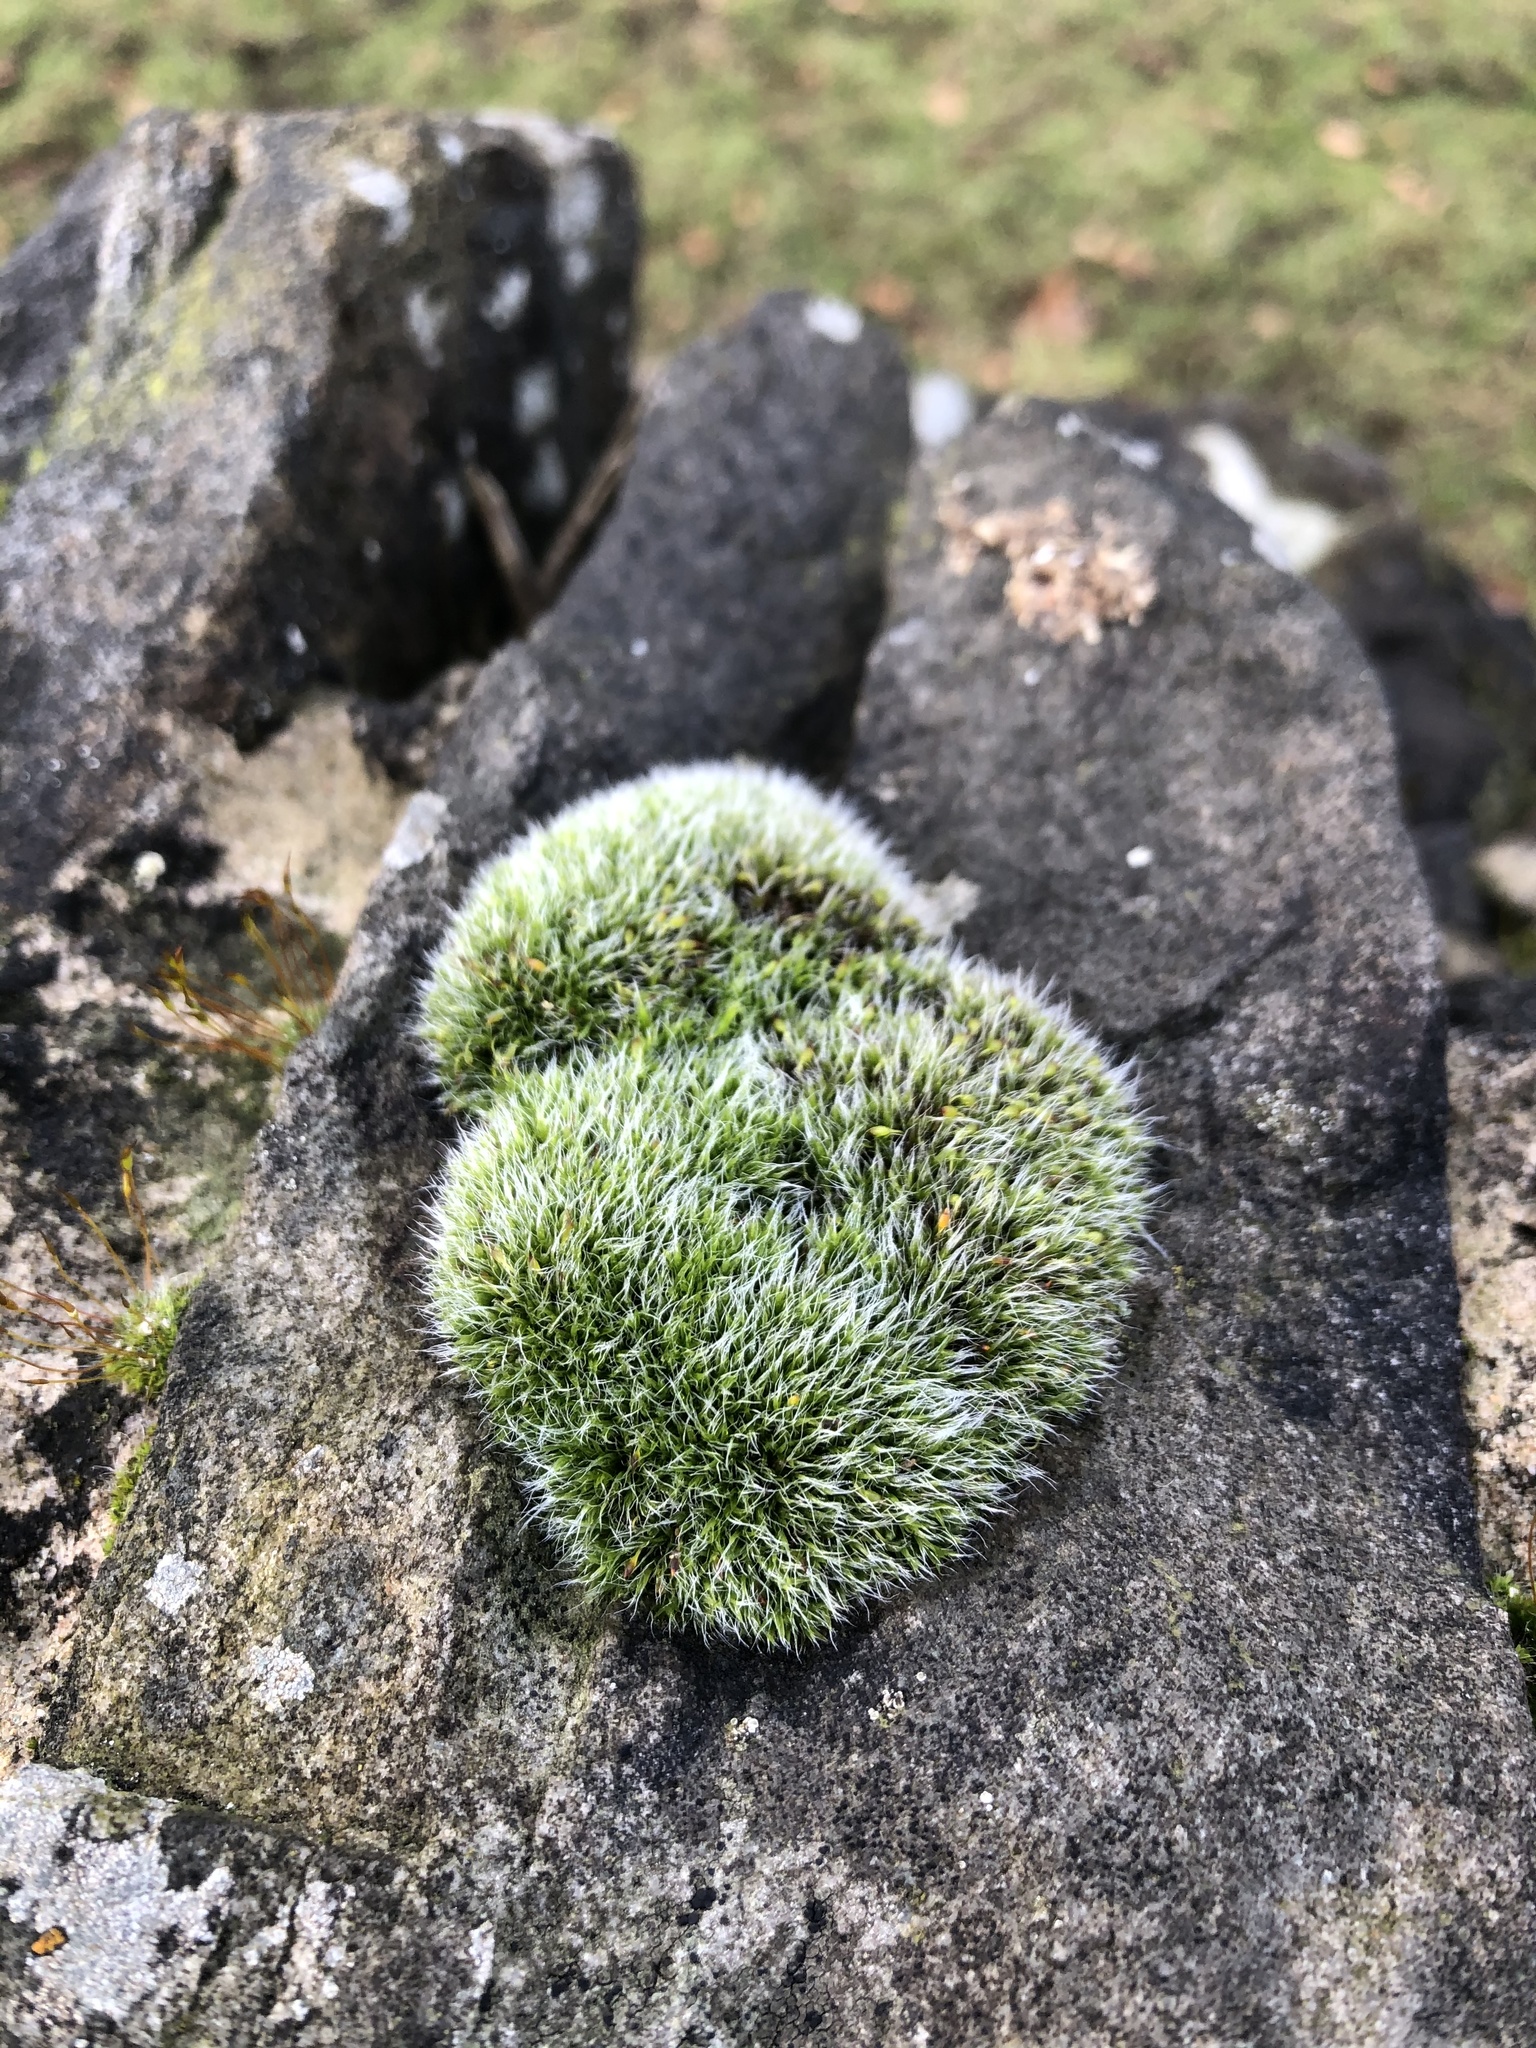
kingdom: Plantae
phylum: Bryophyta
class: Bryopsida
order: Grimmiales
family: Grimmiaceae
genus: Grimmia
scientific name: Grimmia pulvinata
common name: Grey-cushioned grimmia
